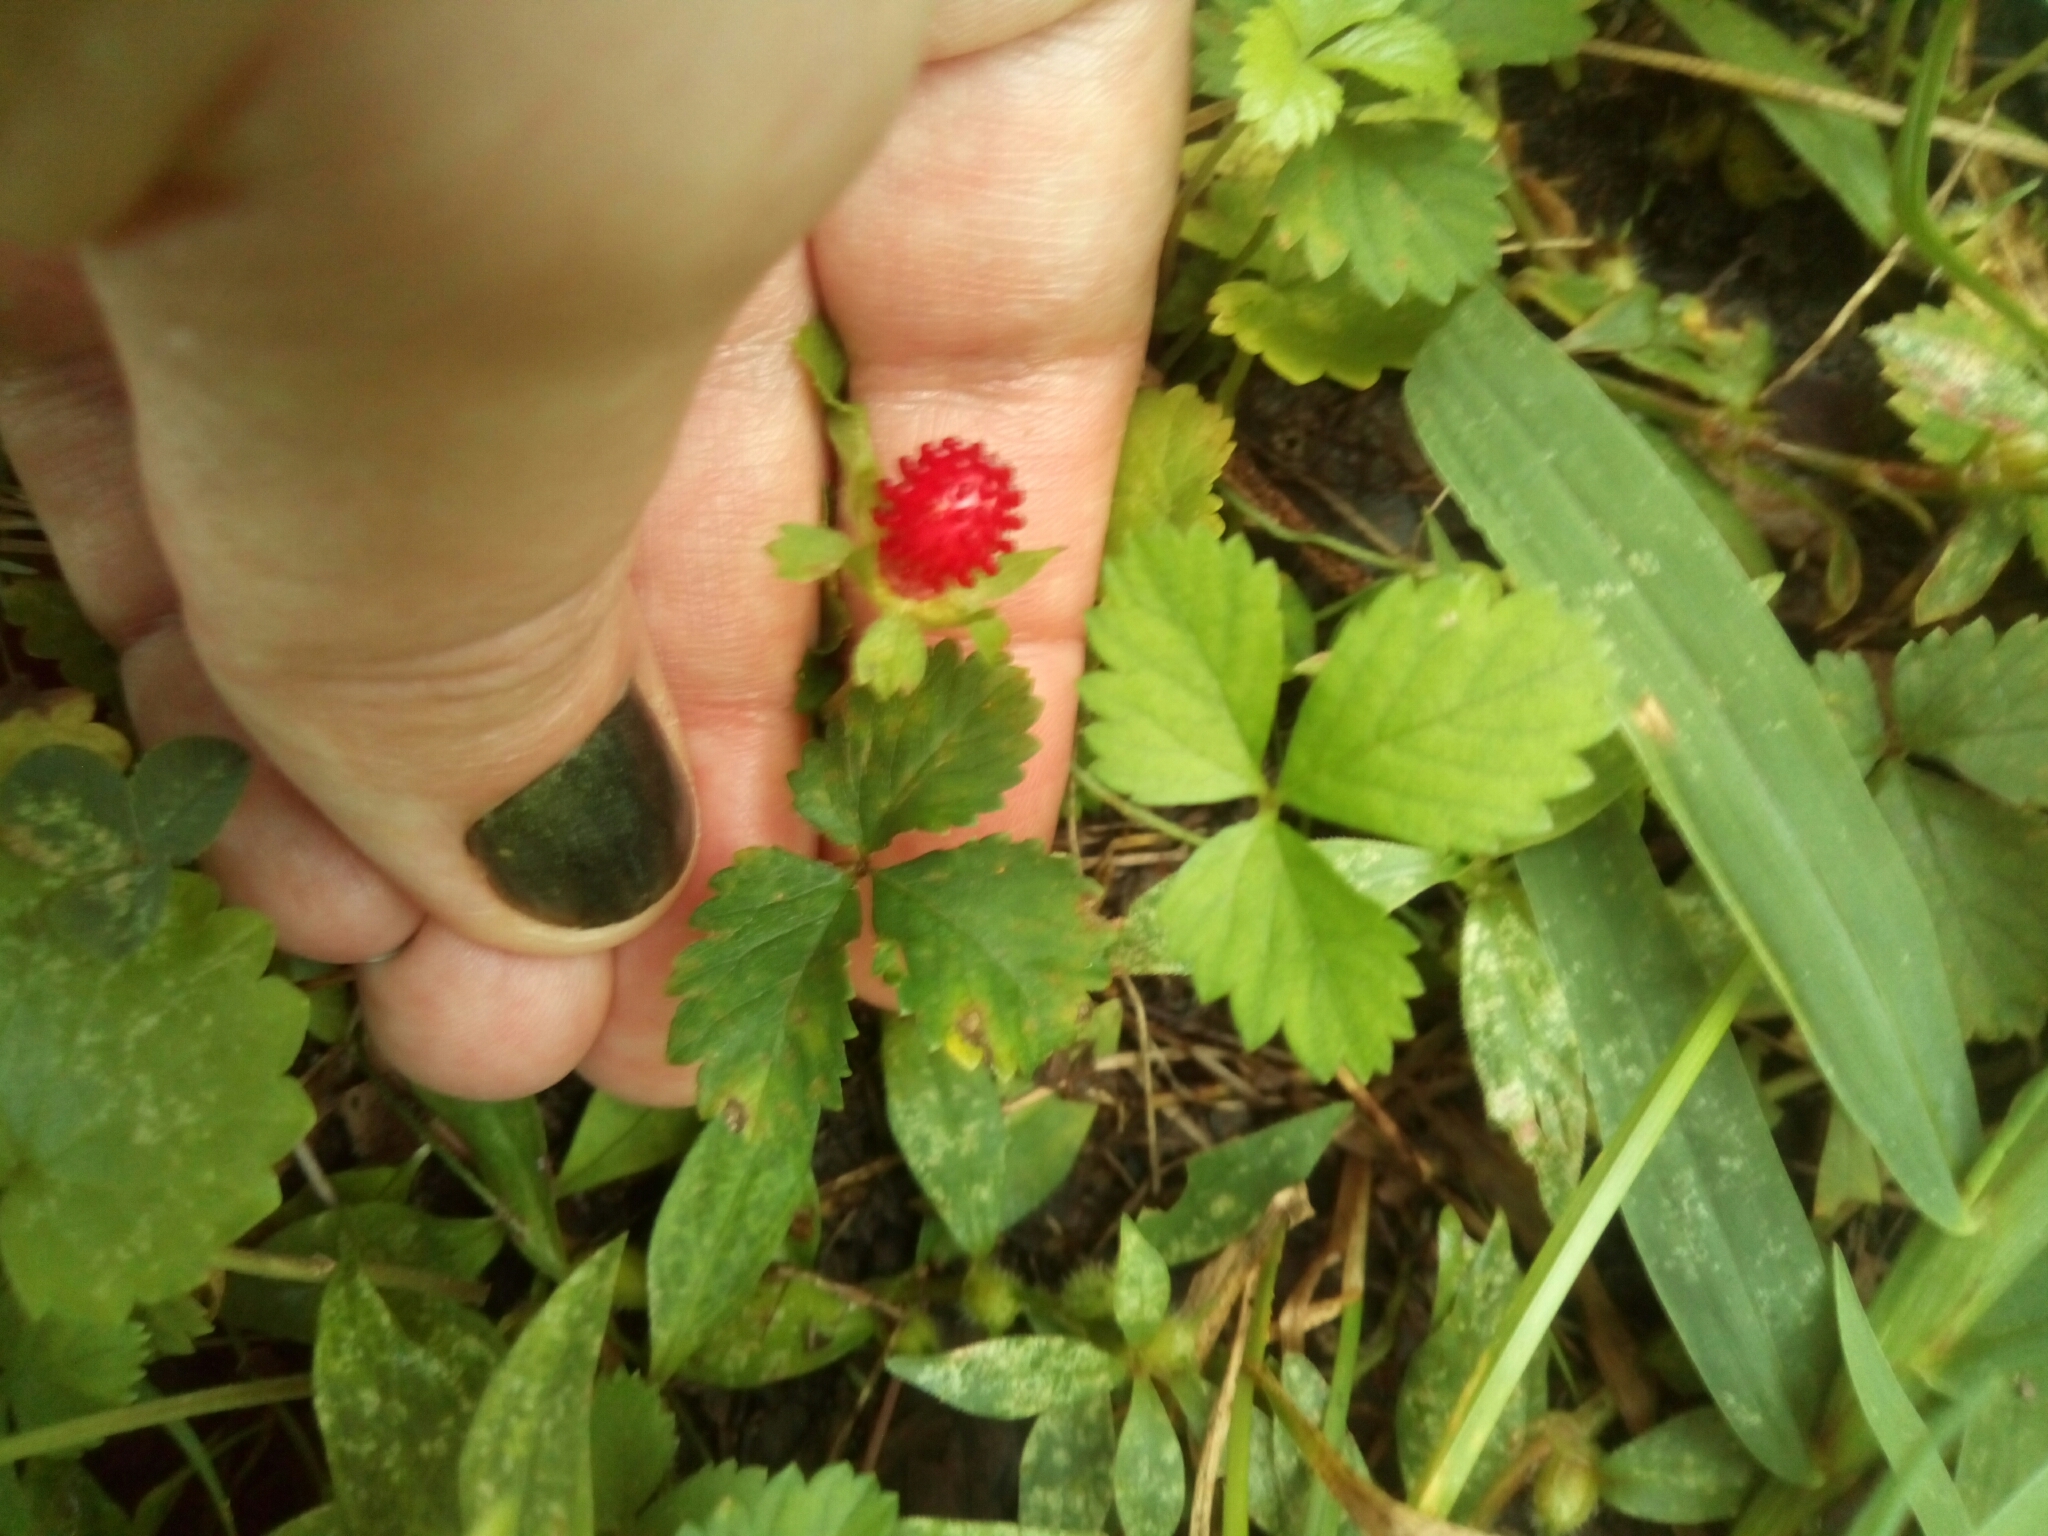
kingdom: Plantae
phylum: Tracheophyta
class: Magnoliopsida
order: Rosales
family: Rosaceae
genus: Potentilla
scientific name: Potentilla indica
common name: Yellow-flowered strawberry
